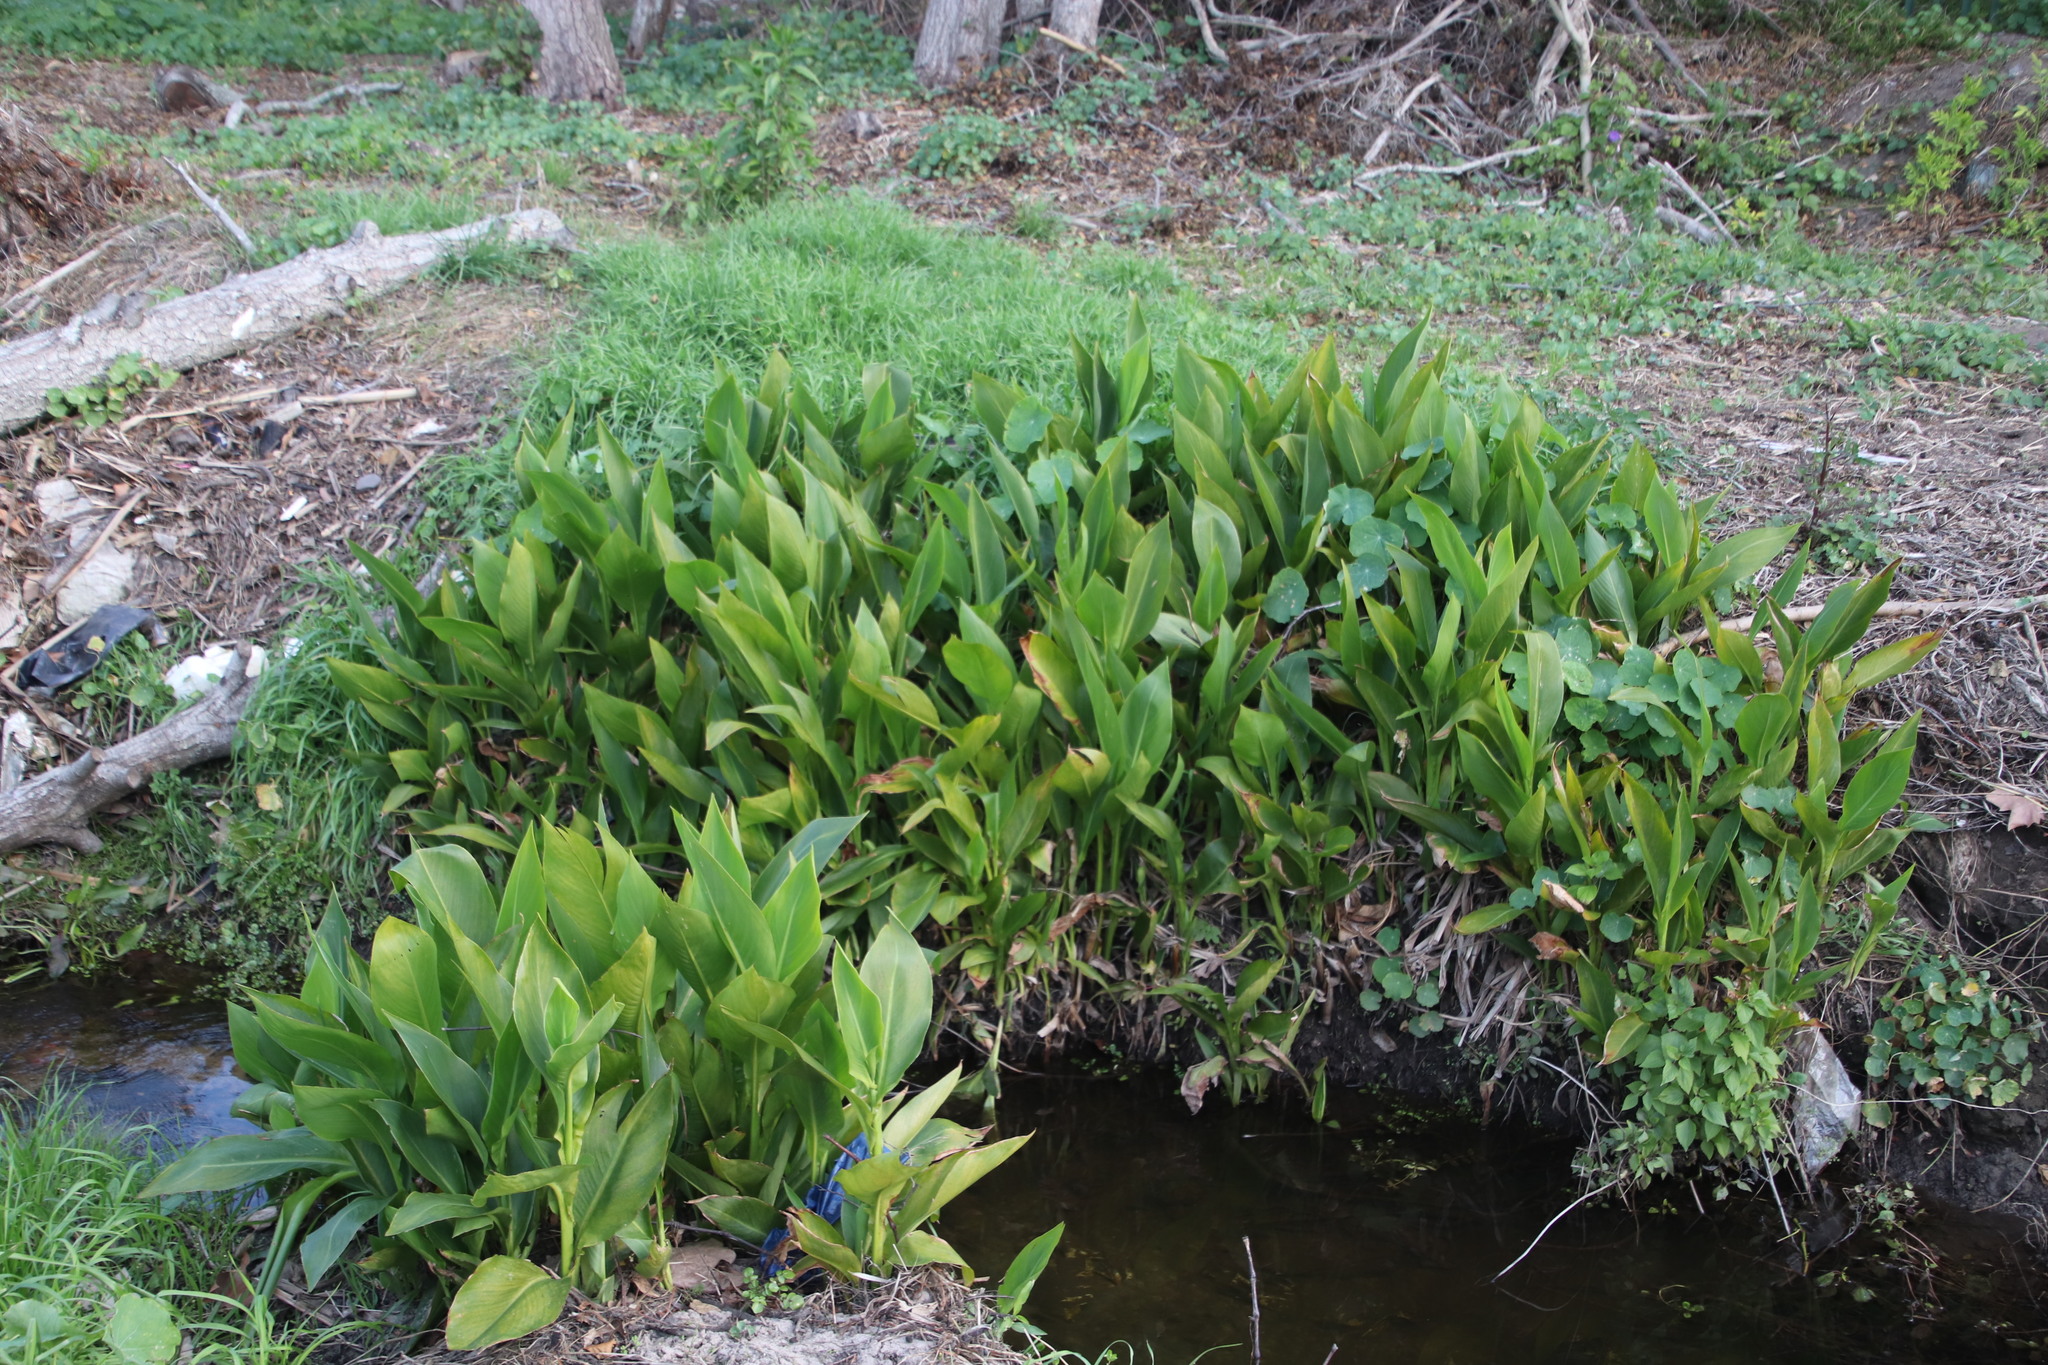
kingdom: Plantae
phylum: Tracheophyta
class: Liliopsida
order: Zingiberales
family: Cannaceae
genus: Canna
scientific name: Canna indica
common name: Indian shot
